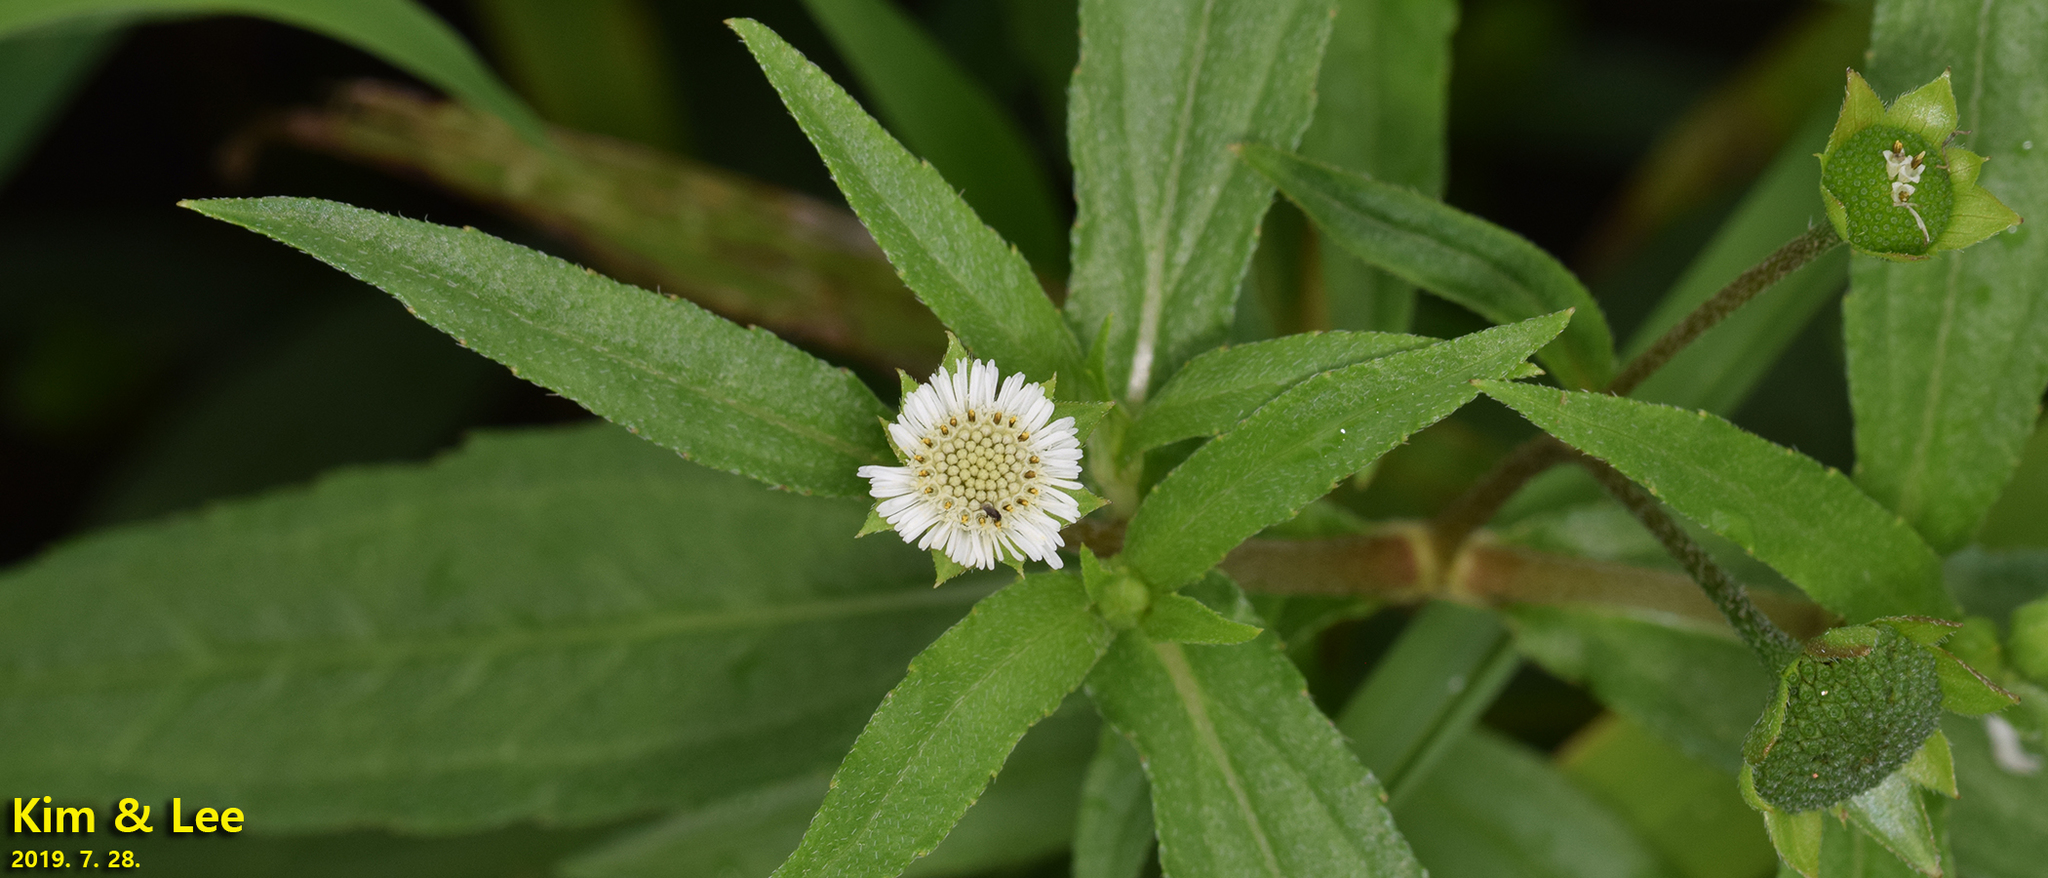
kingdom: Plantae
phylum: Tracheophyta
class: Magnoliopsida
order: Asterales
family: Asteraceae
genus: Eclipta
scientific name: Eclipta prostrata
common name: False daisy
